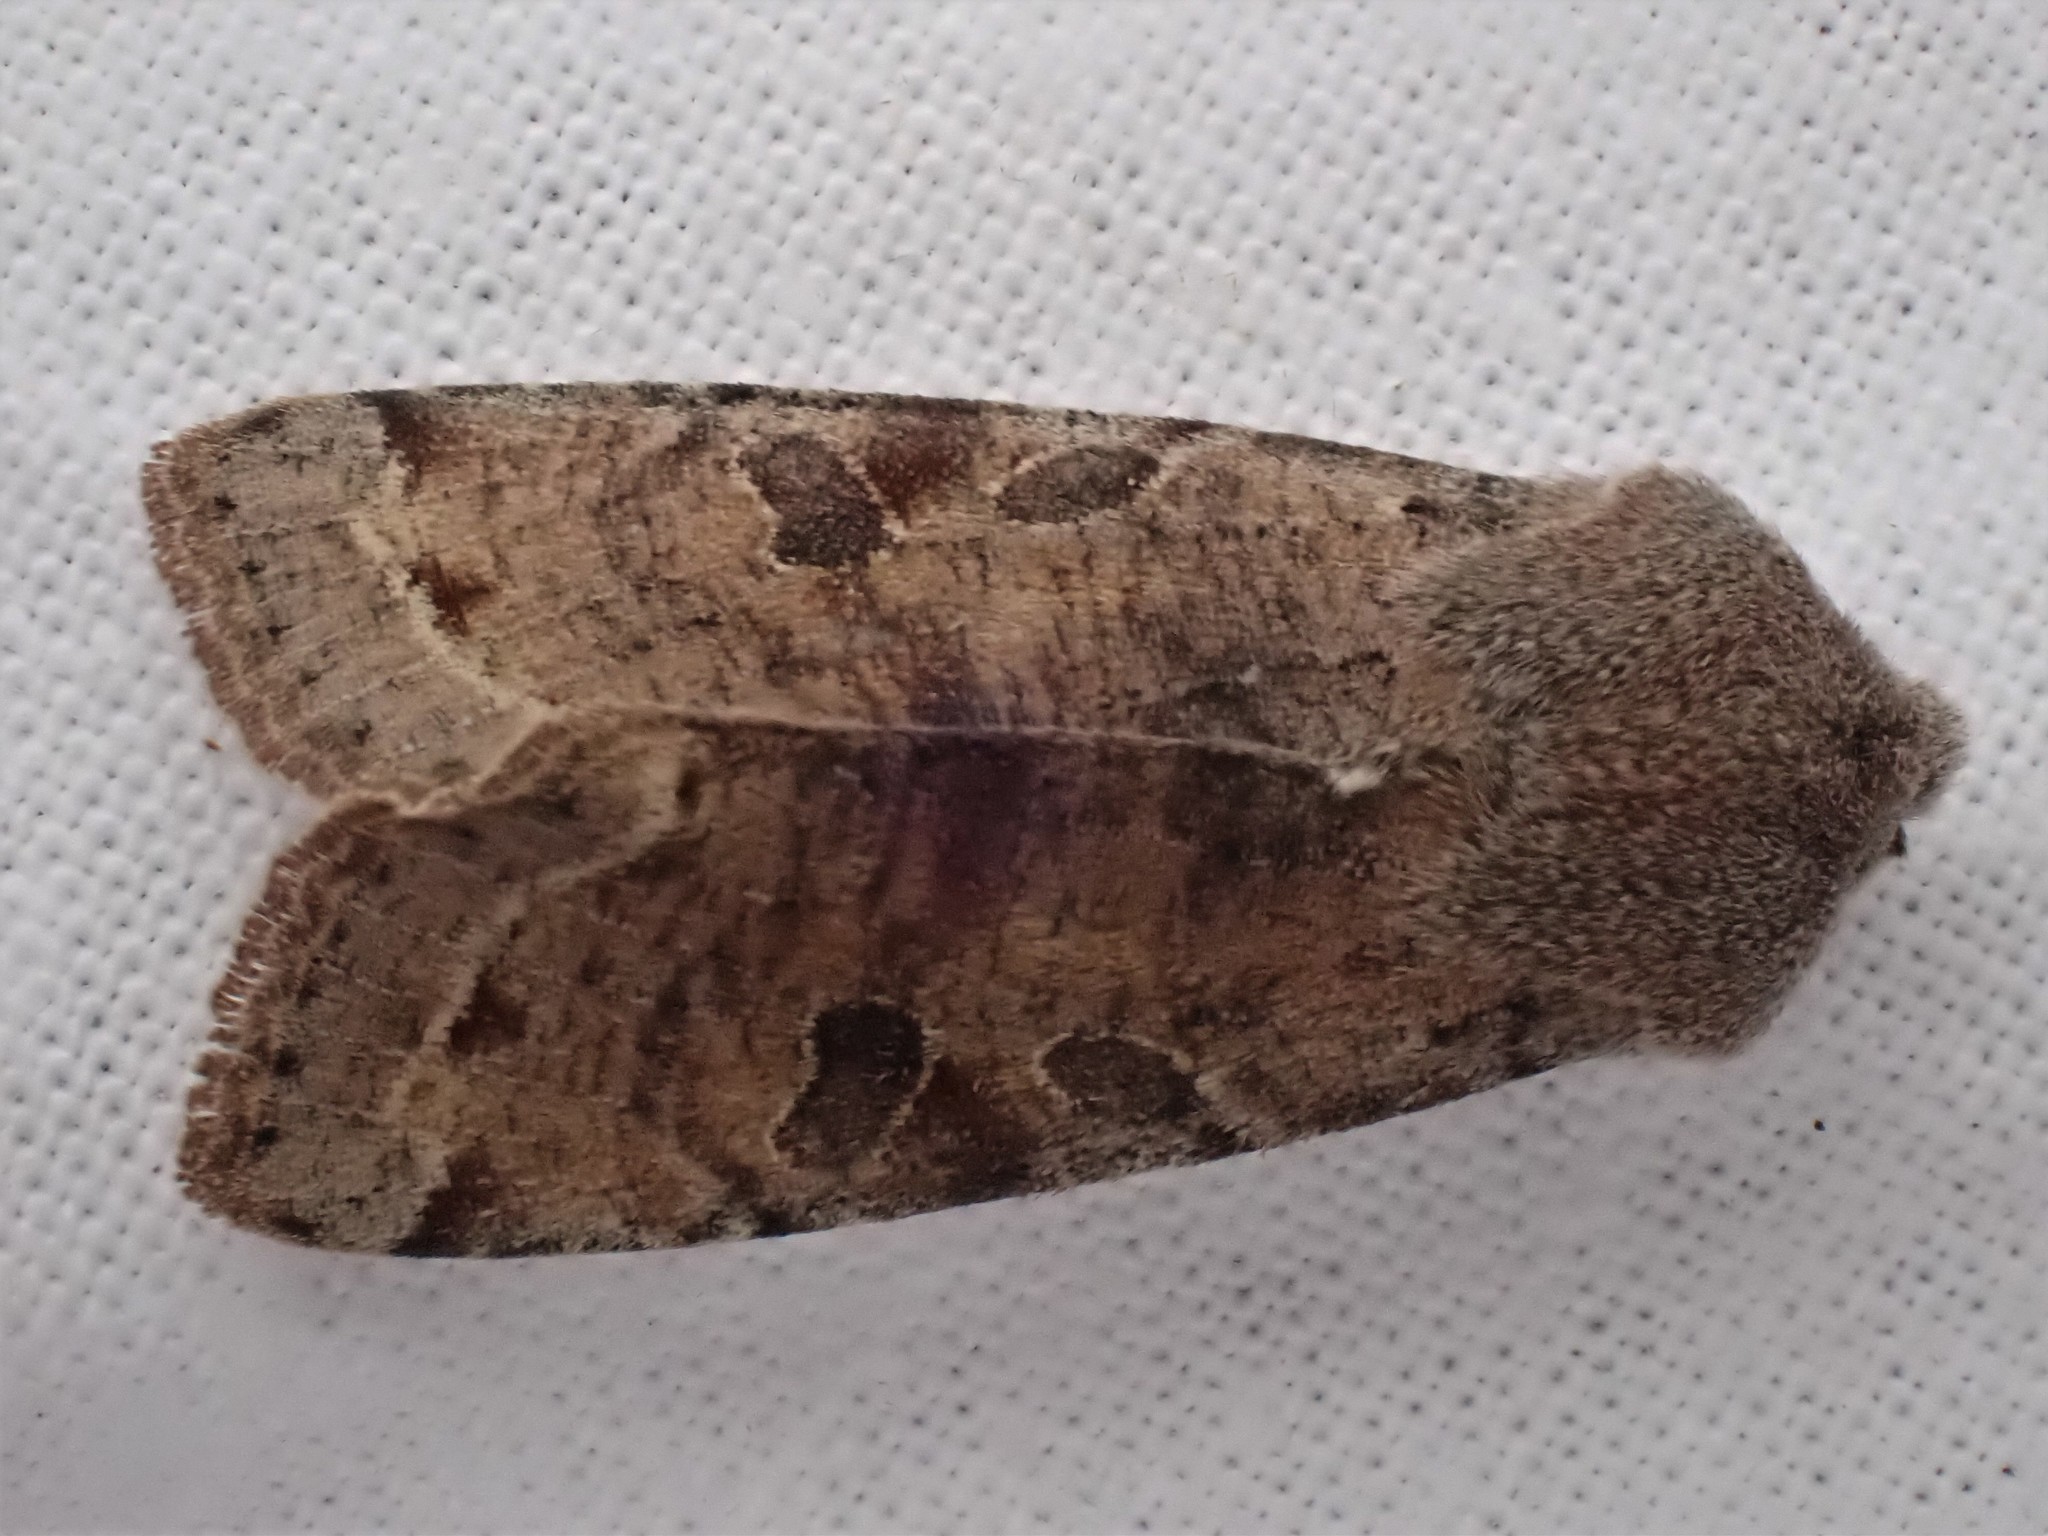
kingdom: Animalia
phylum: Arthropoda
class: Insecta
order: Lepidoptera
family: Noctuidae
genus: Orthosia
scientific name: Orthosia incerta
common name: Clouded drab
